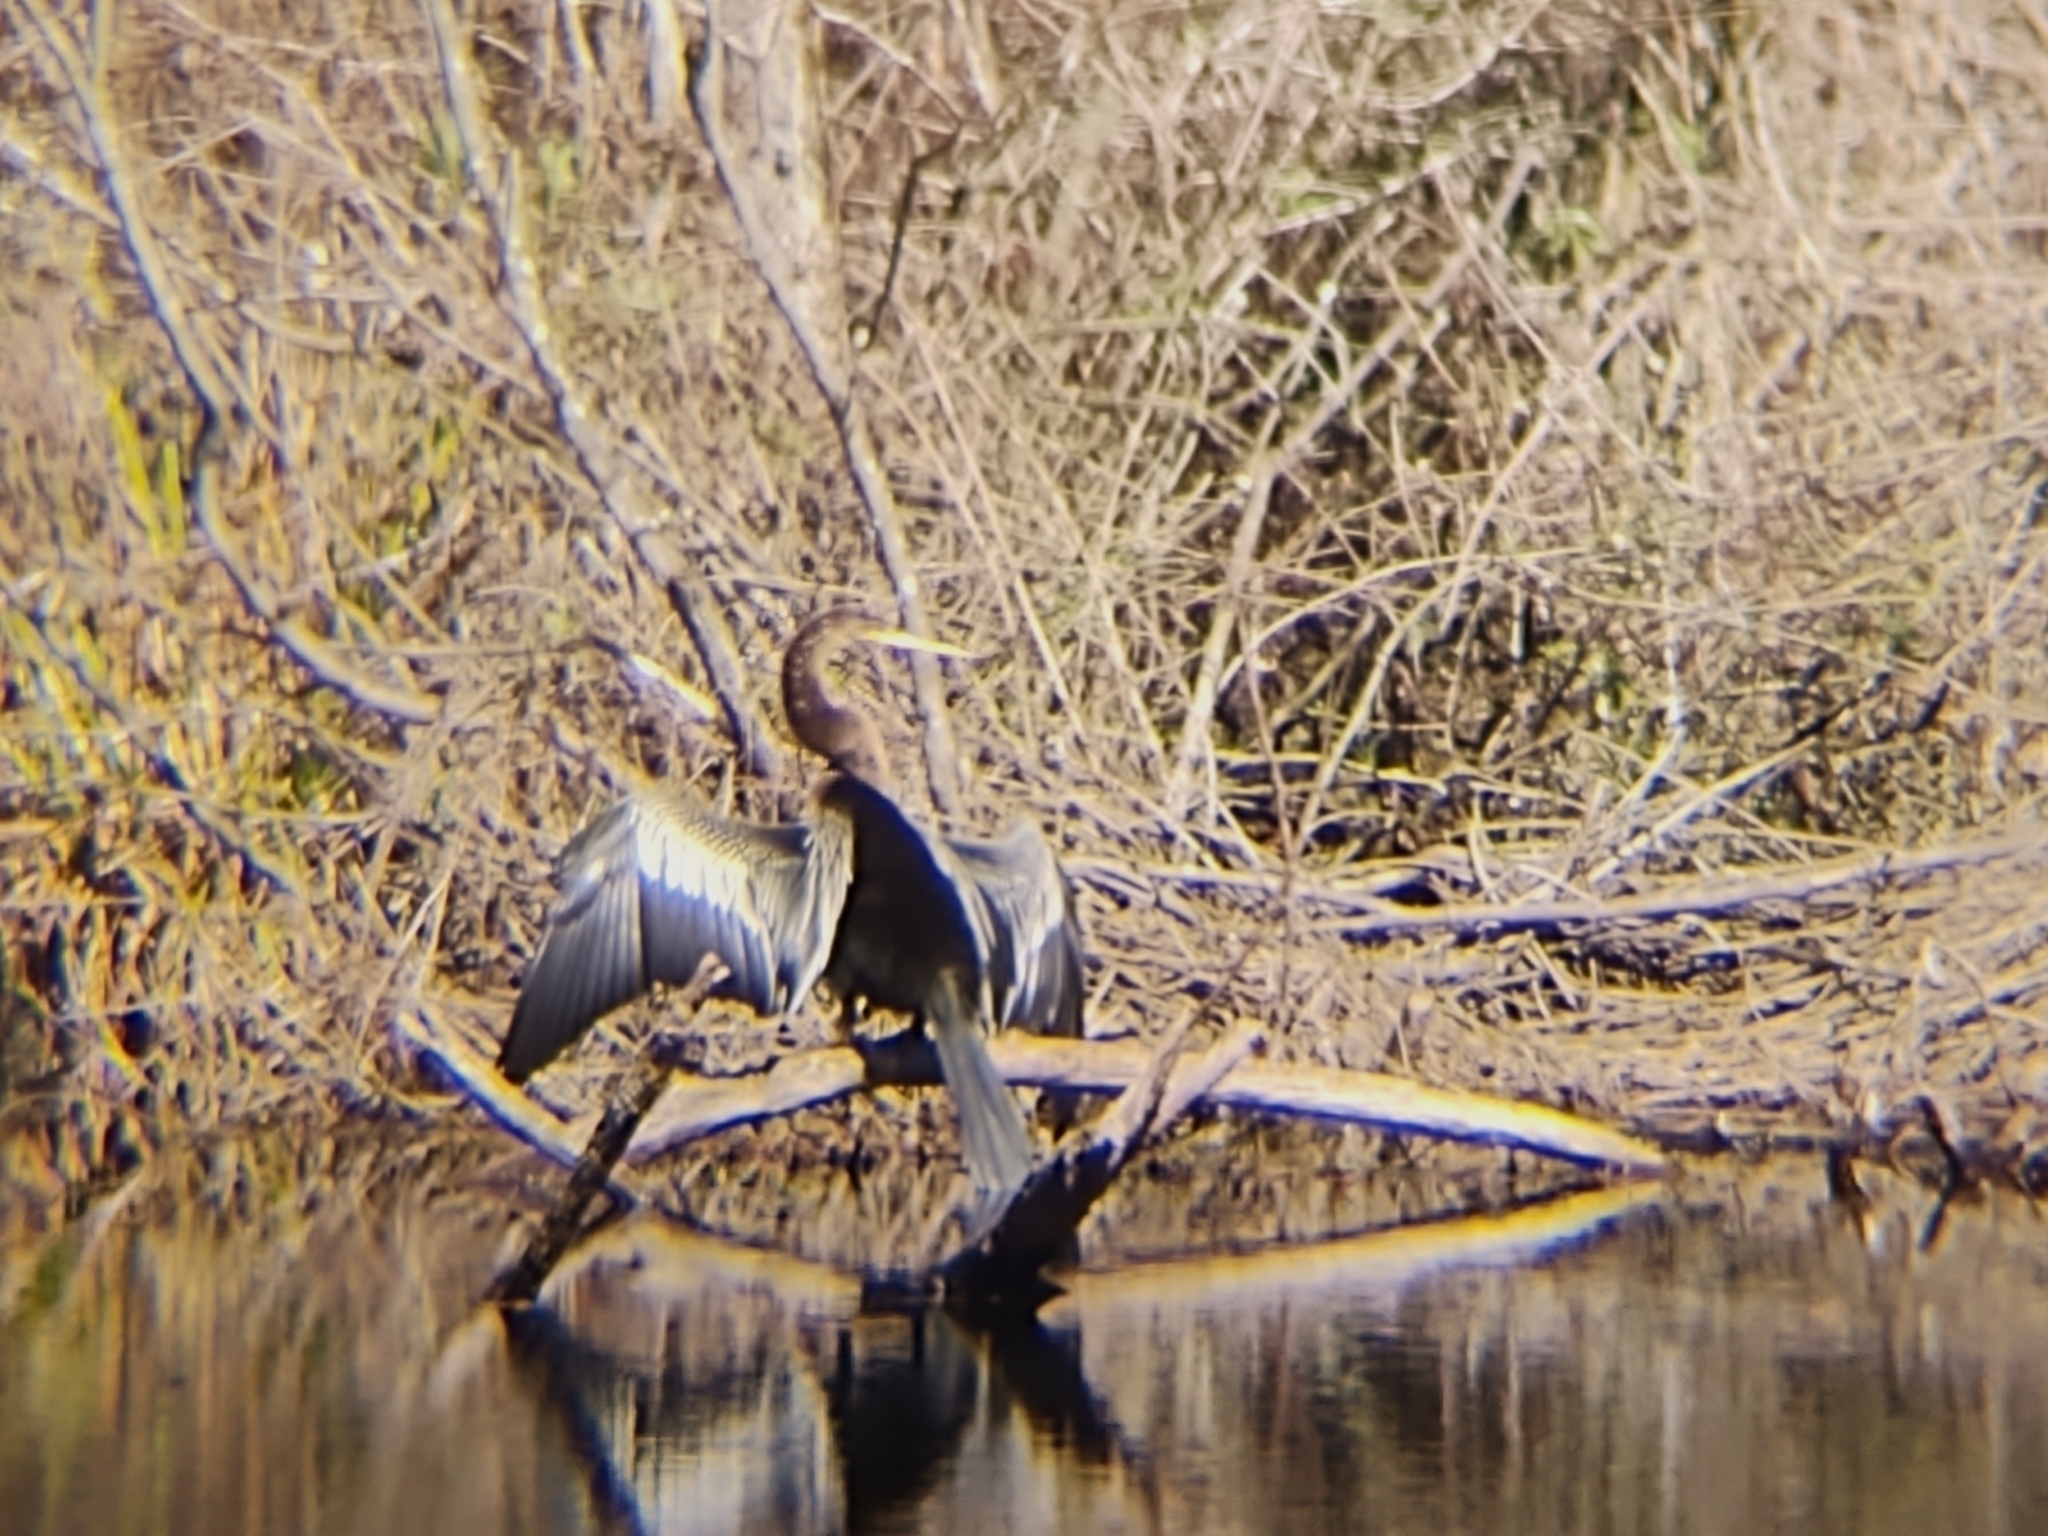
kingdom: Animalia
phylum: Chordata
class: Aves
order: Suliformes
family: Anhingidae
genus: Anhinga
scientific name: Anhinga anhinga
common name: Anhinga
